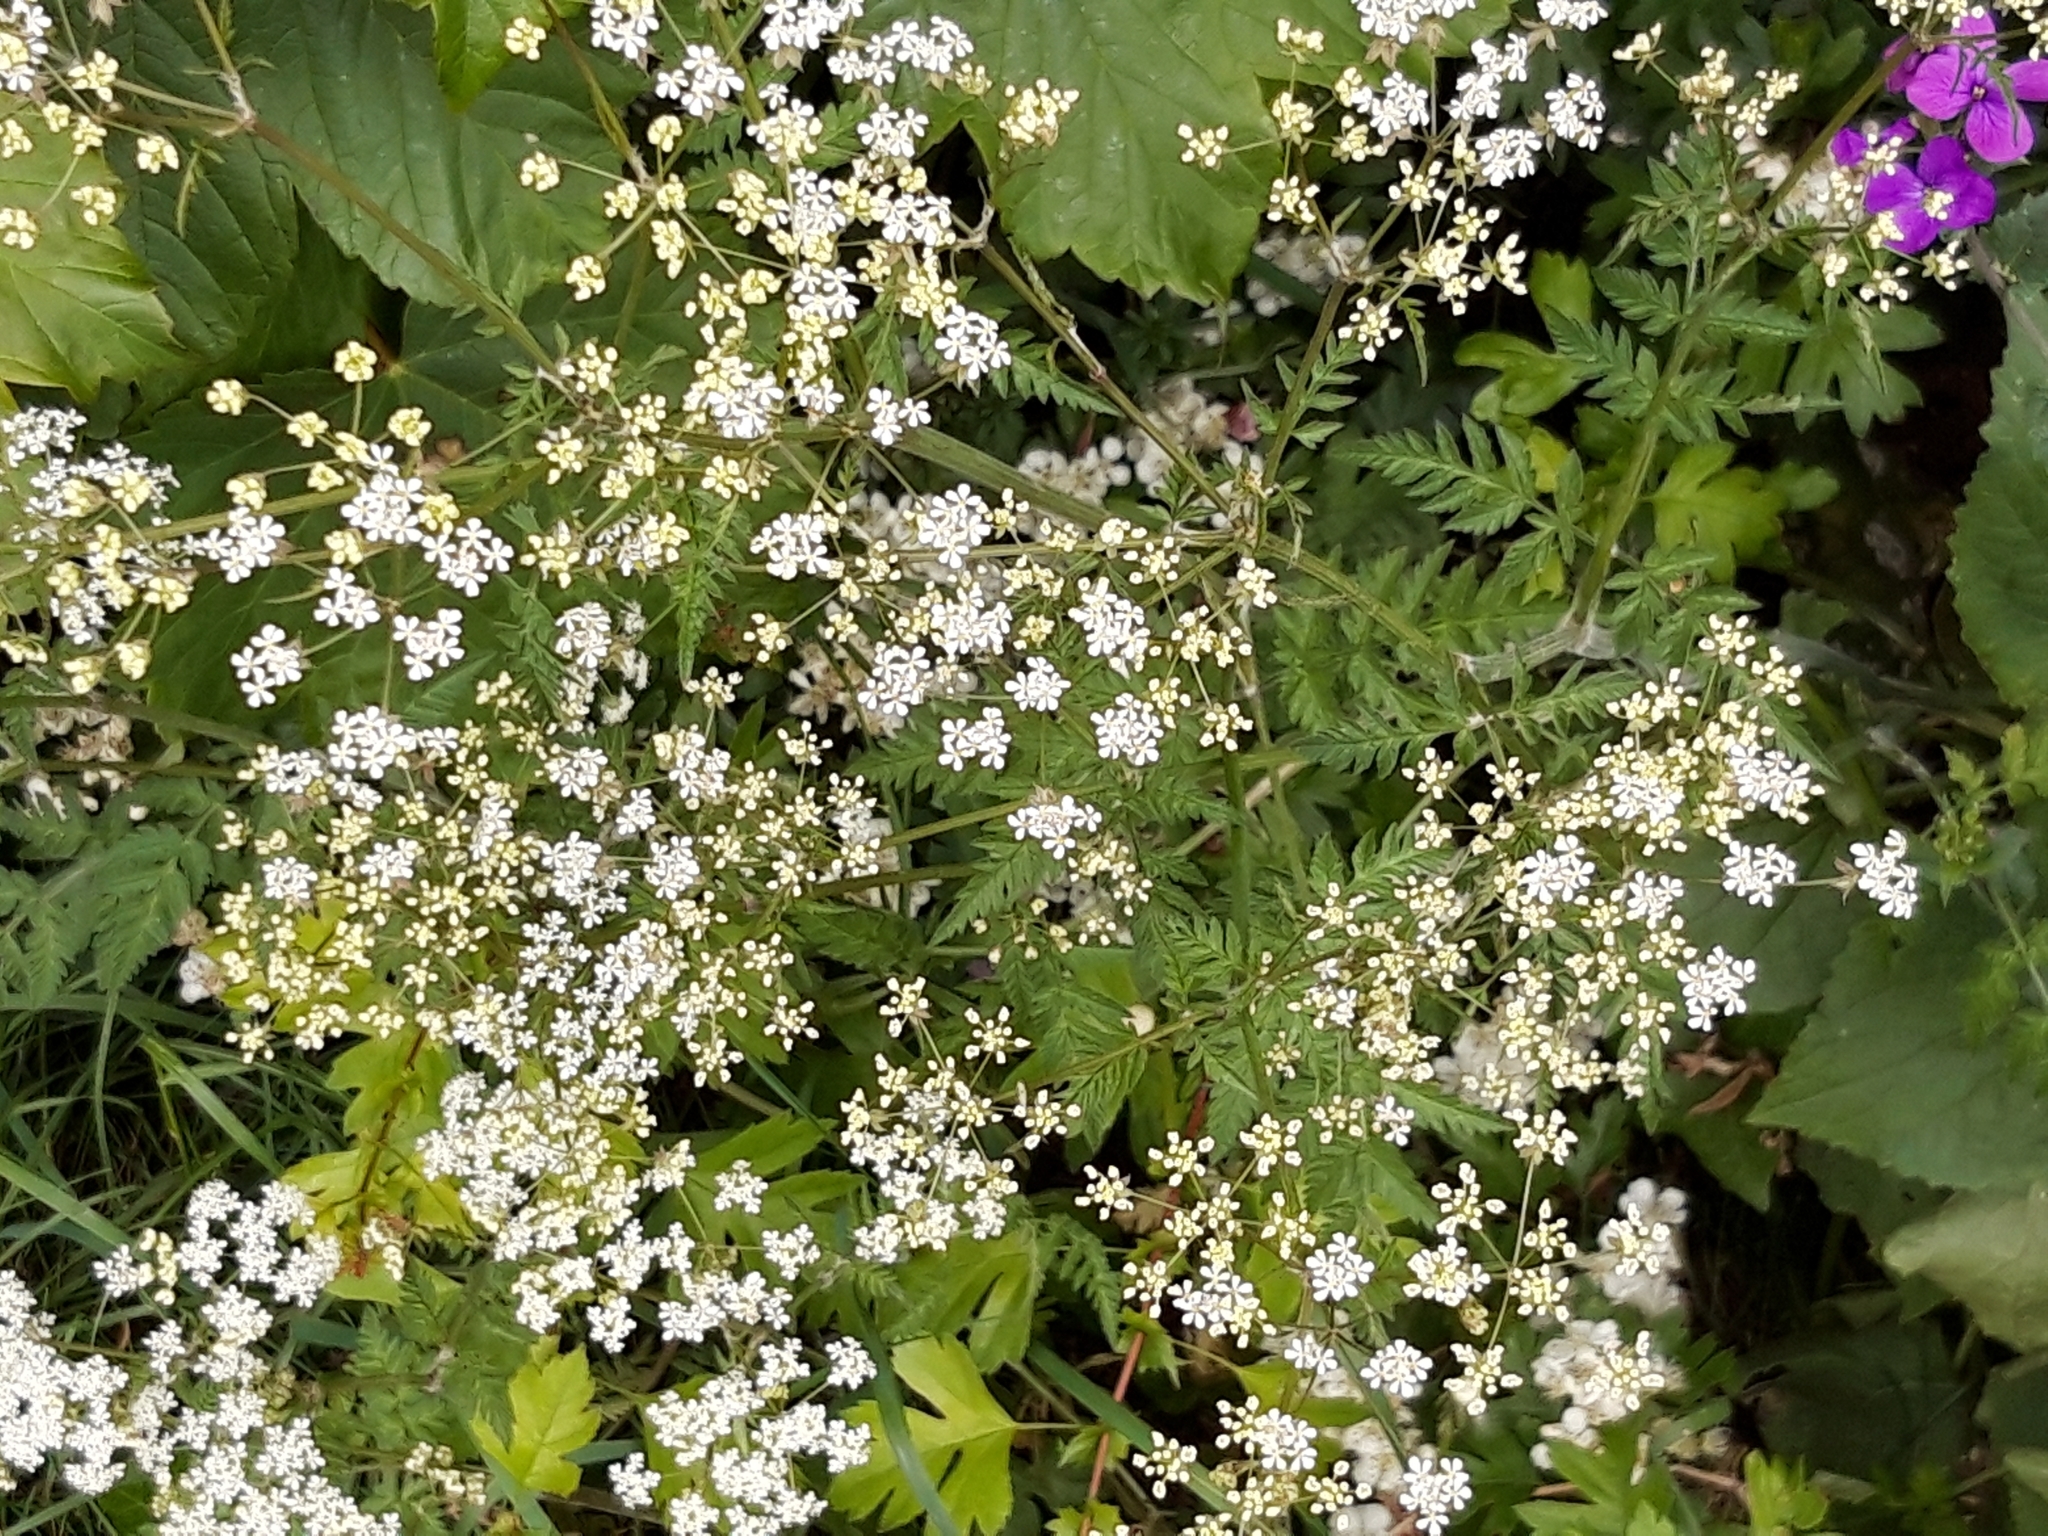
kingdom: Plantae
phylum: Tracheophyta
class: Magnoliopsida
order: Apiales
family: Apiaceae
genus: Anthriscus
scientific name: Anthriscus sylvestris
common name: Cow parsley
